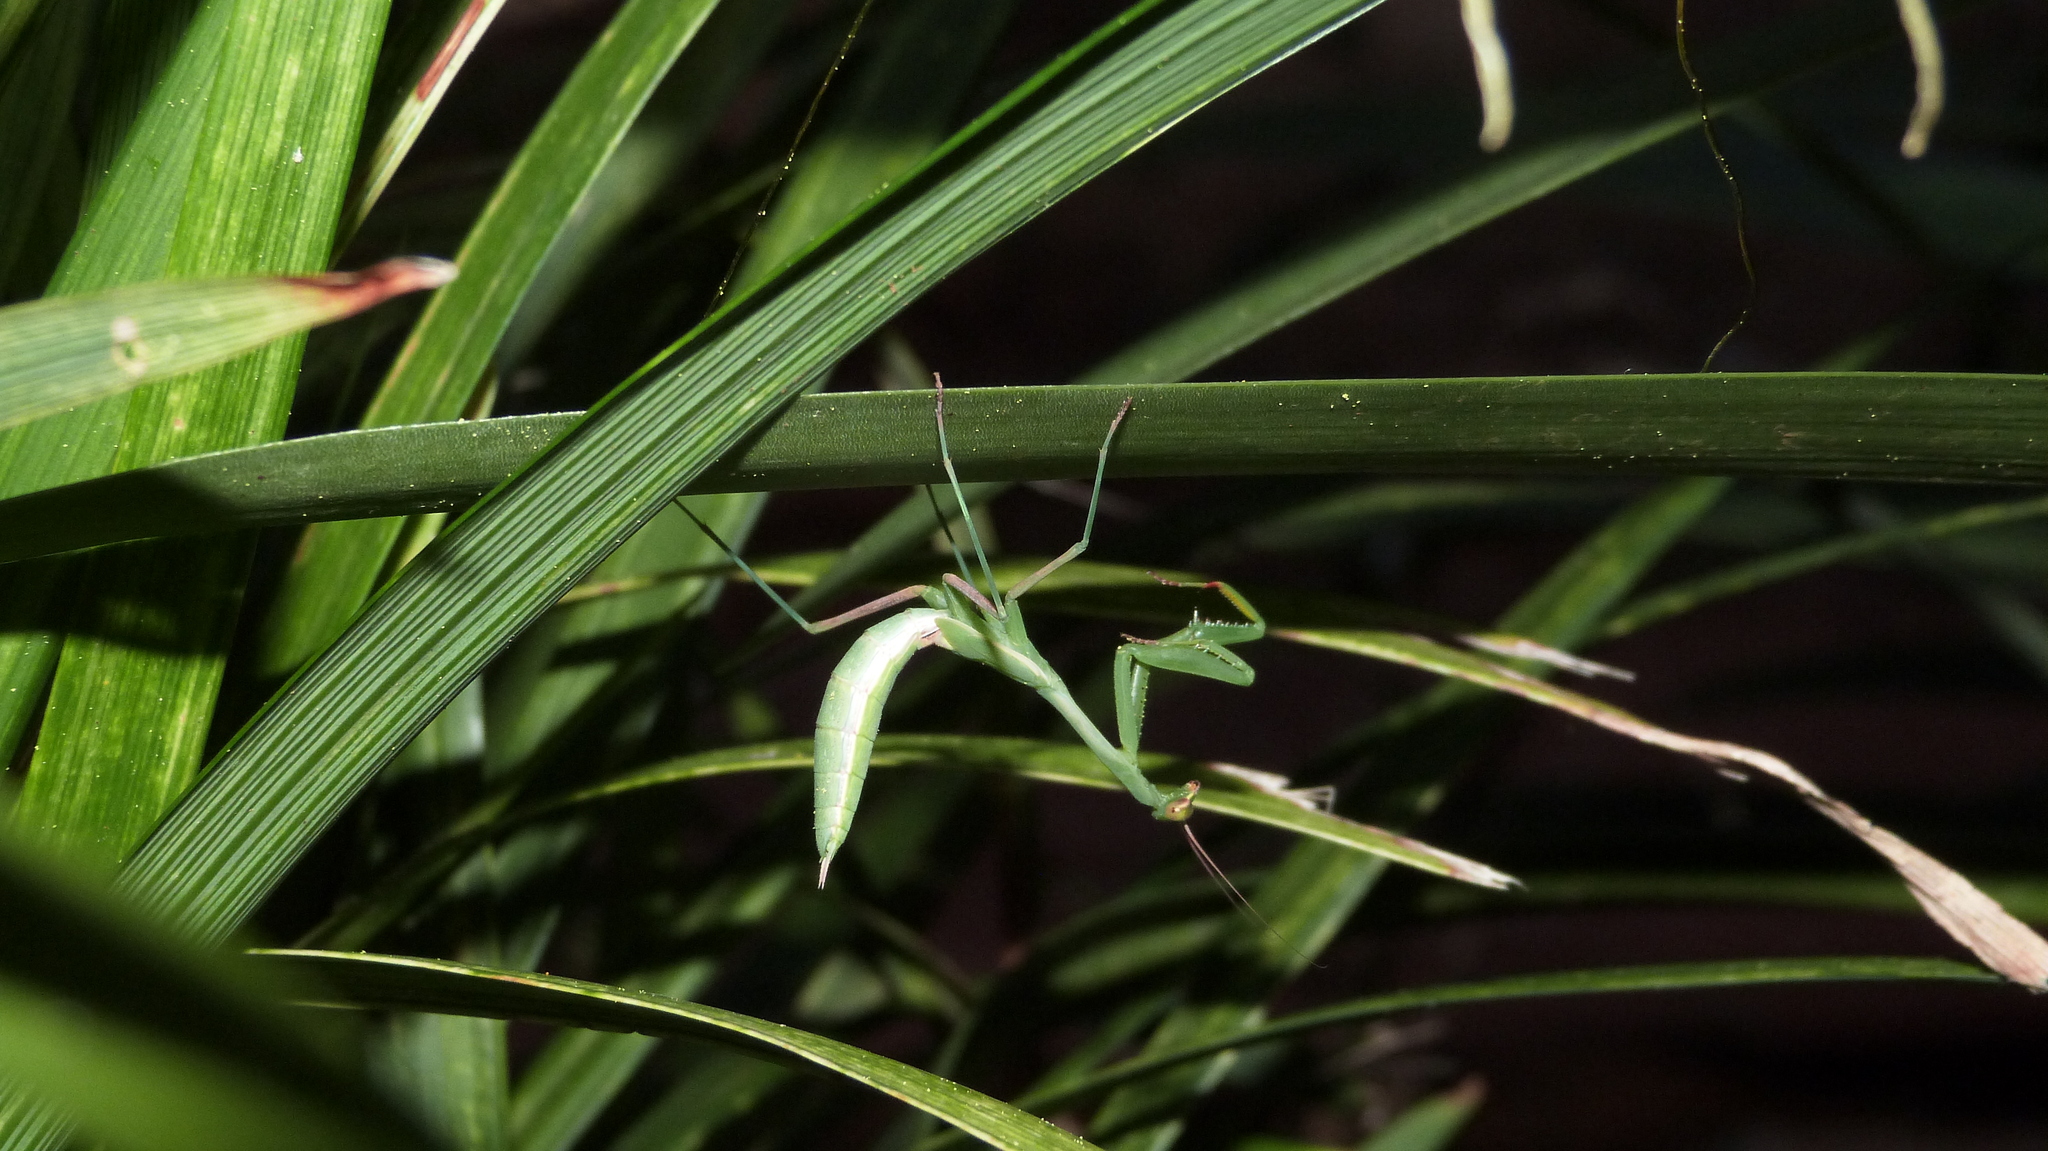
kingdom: Animalia
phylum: Arthropoda
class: Insecta
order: Mantodea
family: Miomantidae
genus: Miomantis
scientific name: Miomantis caffra
